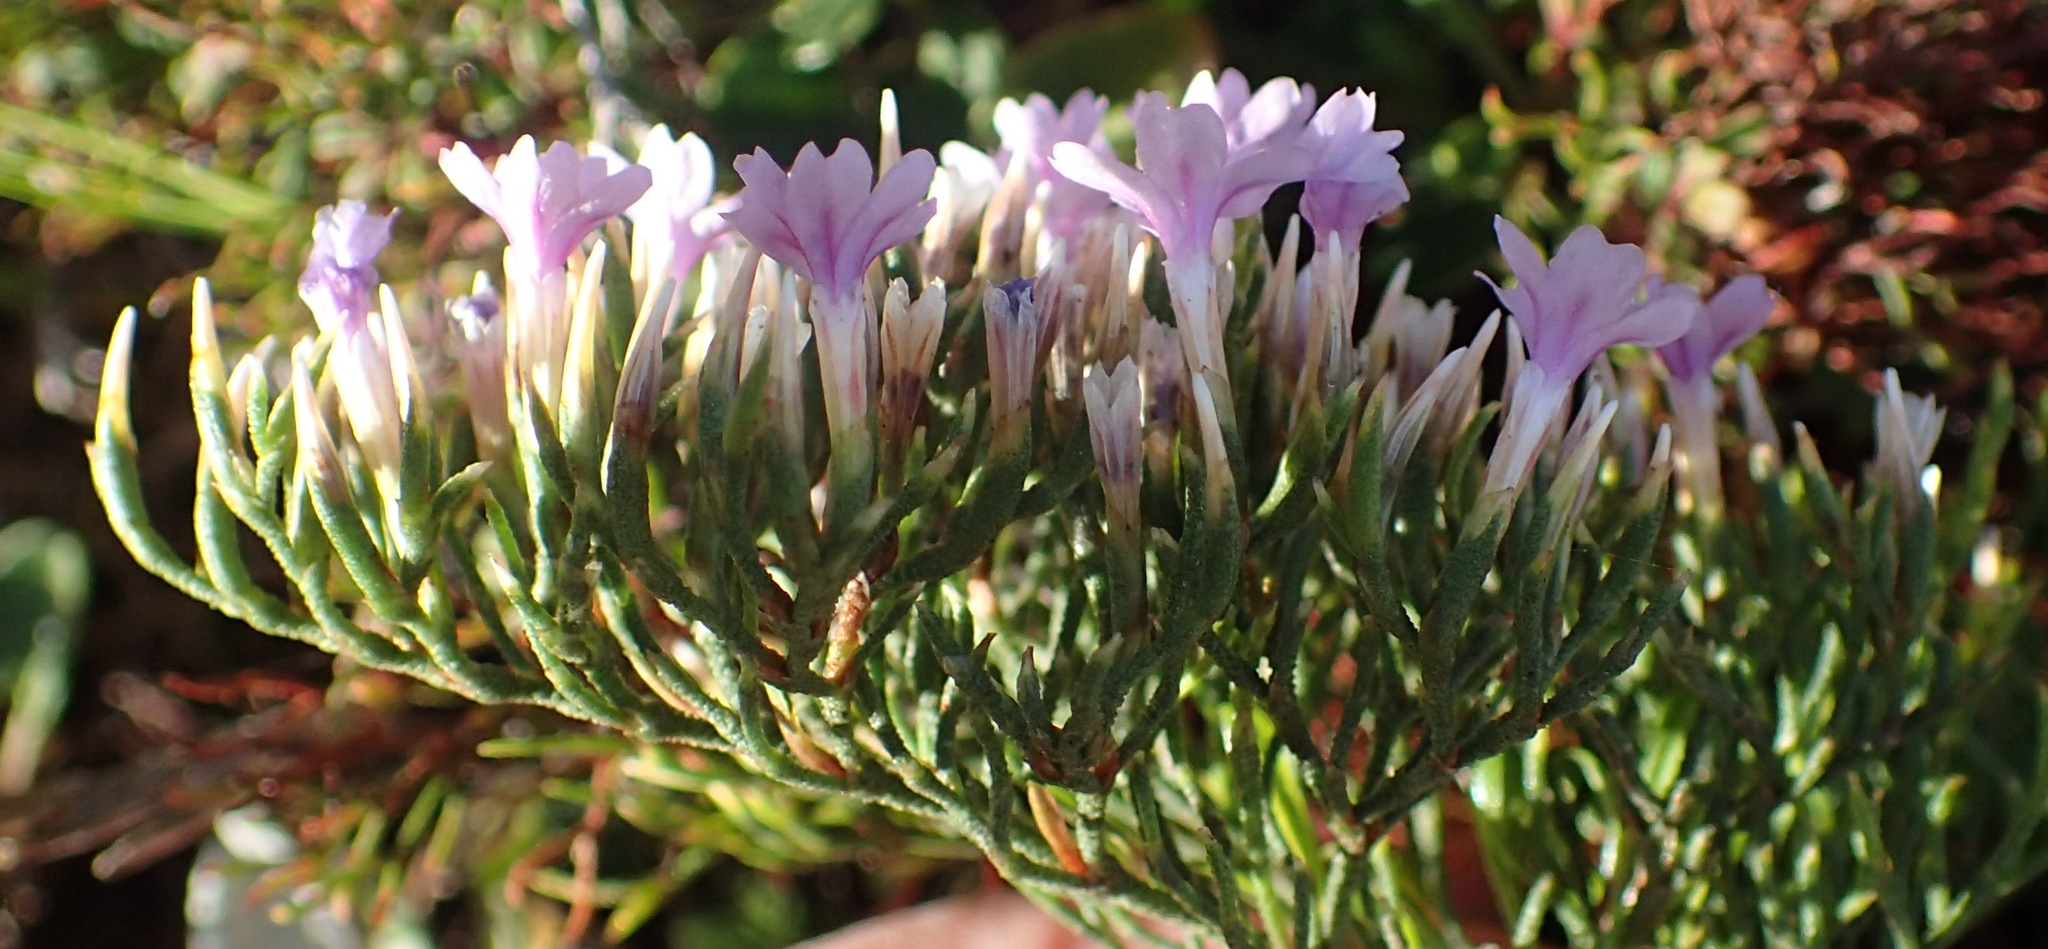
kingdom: Plantae
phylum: Tracheophyta
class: Magnoliopsida
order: Caryophyllales
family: Plumbaginaceae
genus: Limonium
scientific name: Limonium scabrum
